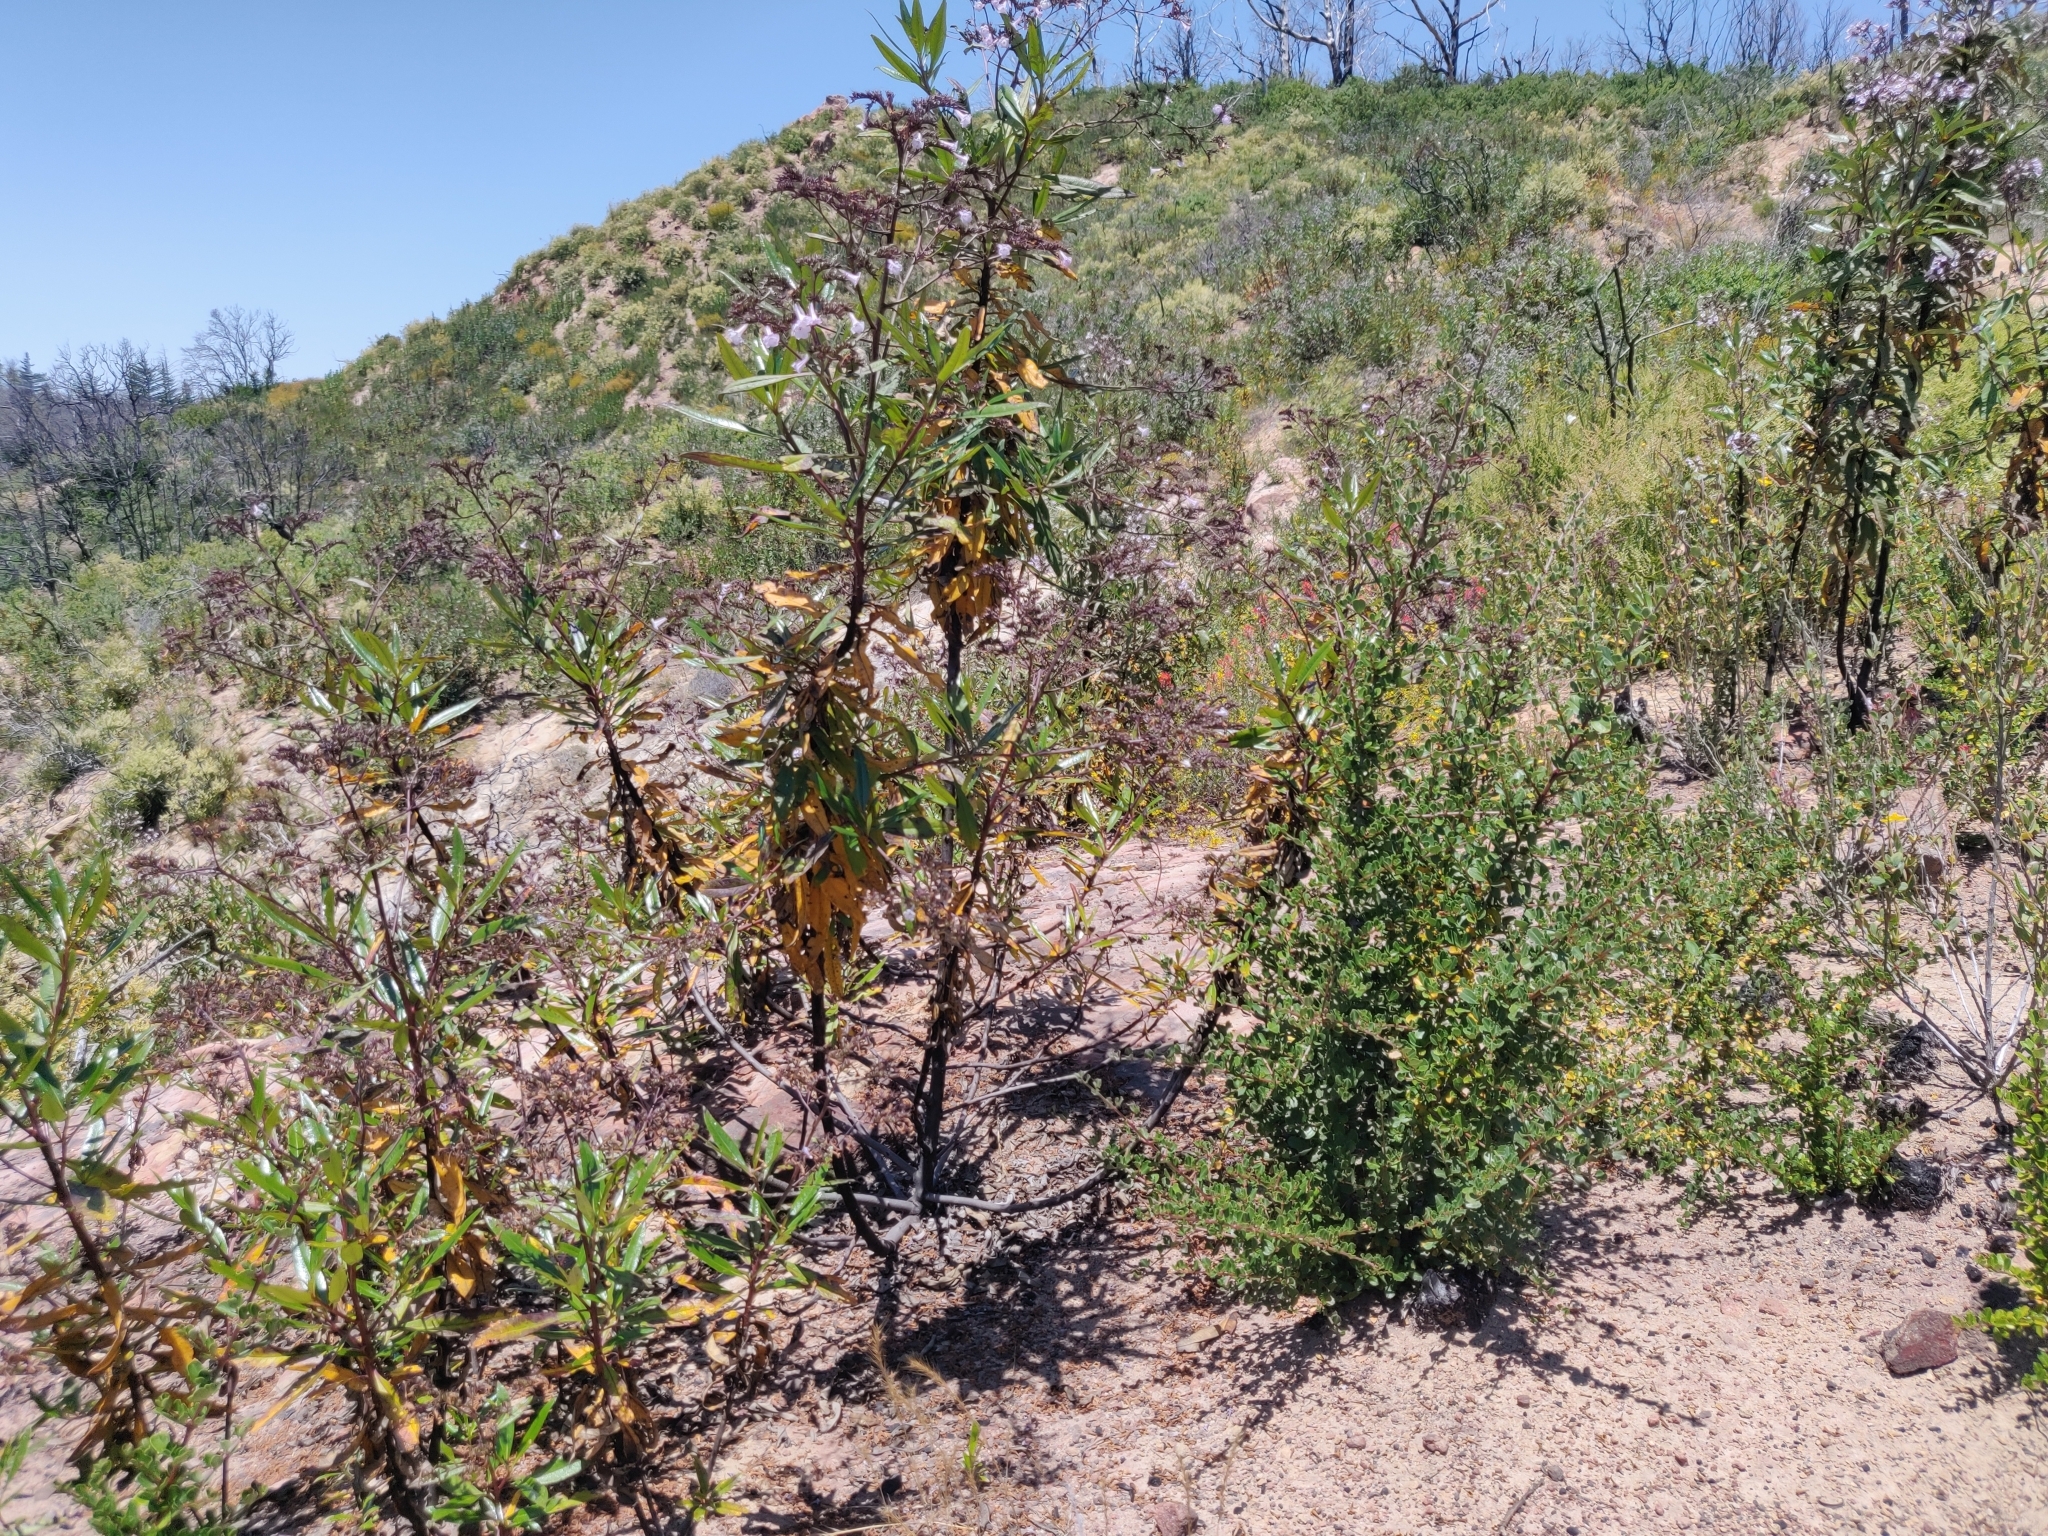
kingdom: Plantae
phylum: Tracheophyta
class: Magnoliopsida
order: Rosales
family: Rhamnaceae
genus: Ceanothus
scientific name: Ceanothus cuneatus
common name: Cuneate ceanothus
